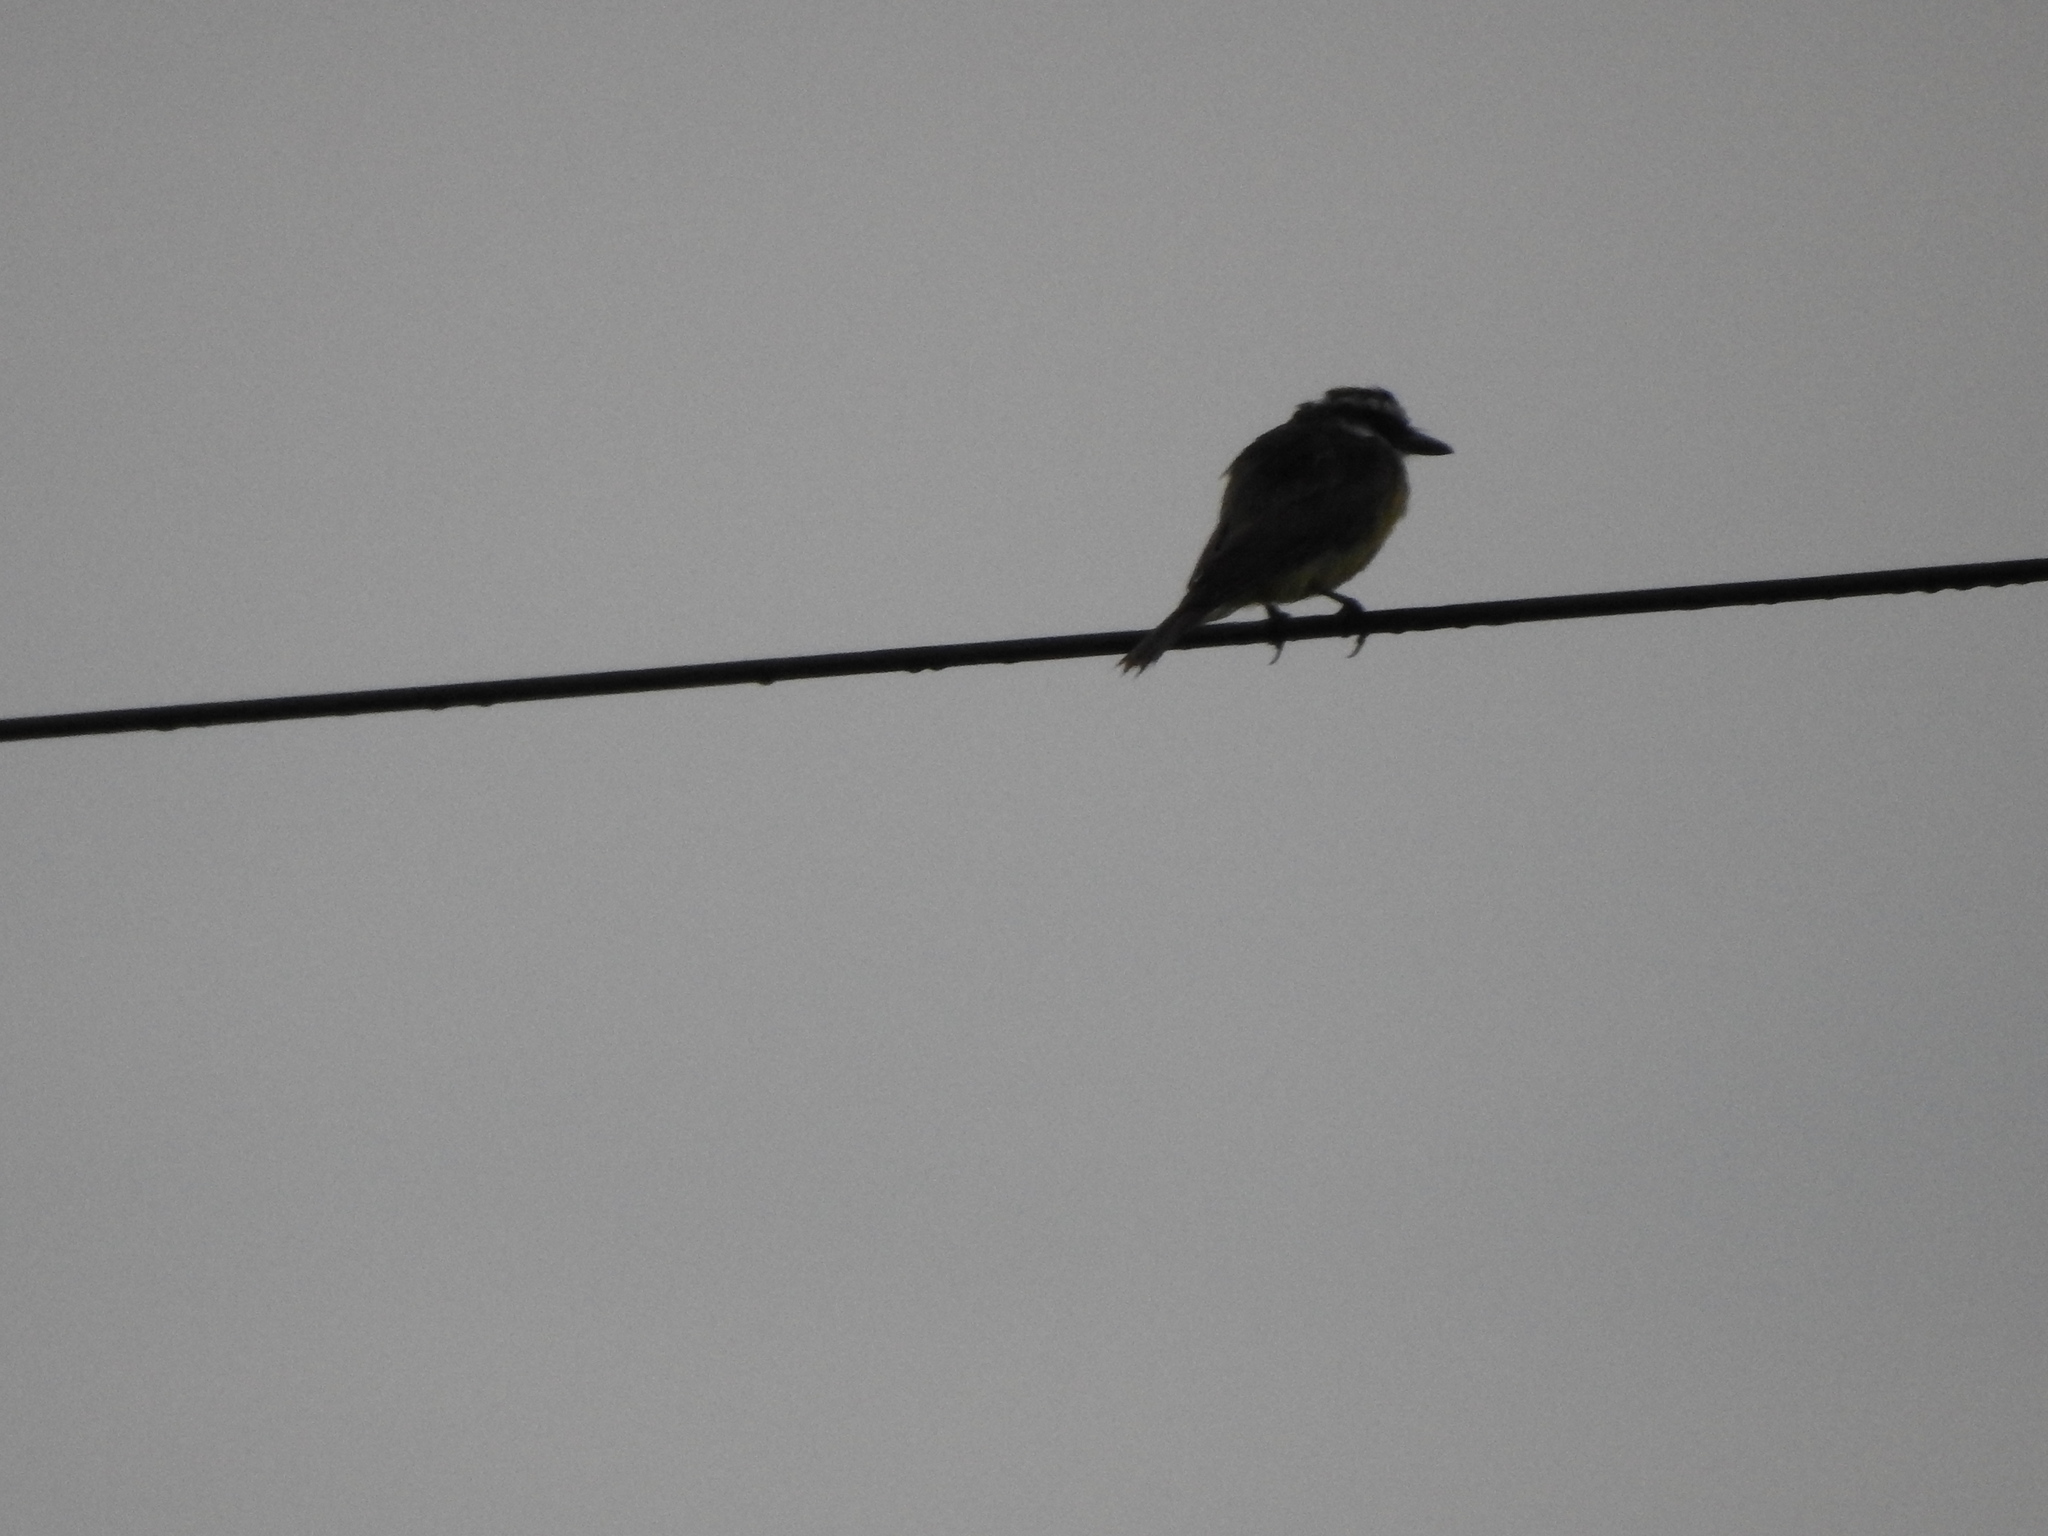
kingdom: Animalia
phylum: Chordata
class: Aves
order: Passeriformes
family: Tyrannidae
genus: Pitangus
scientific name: Pitangus sulphuratus
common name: Great kiskadee
